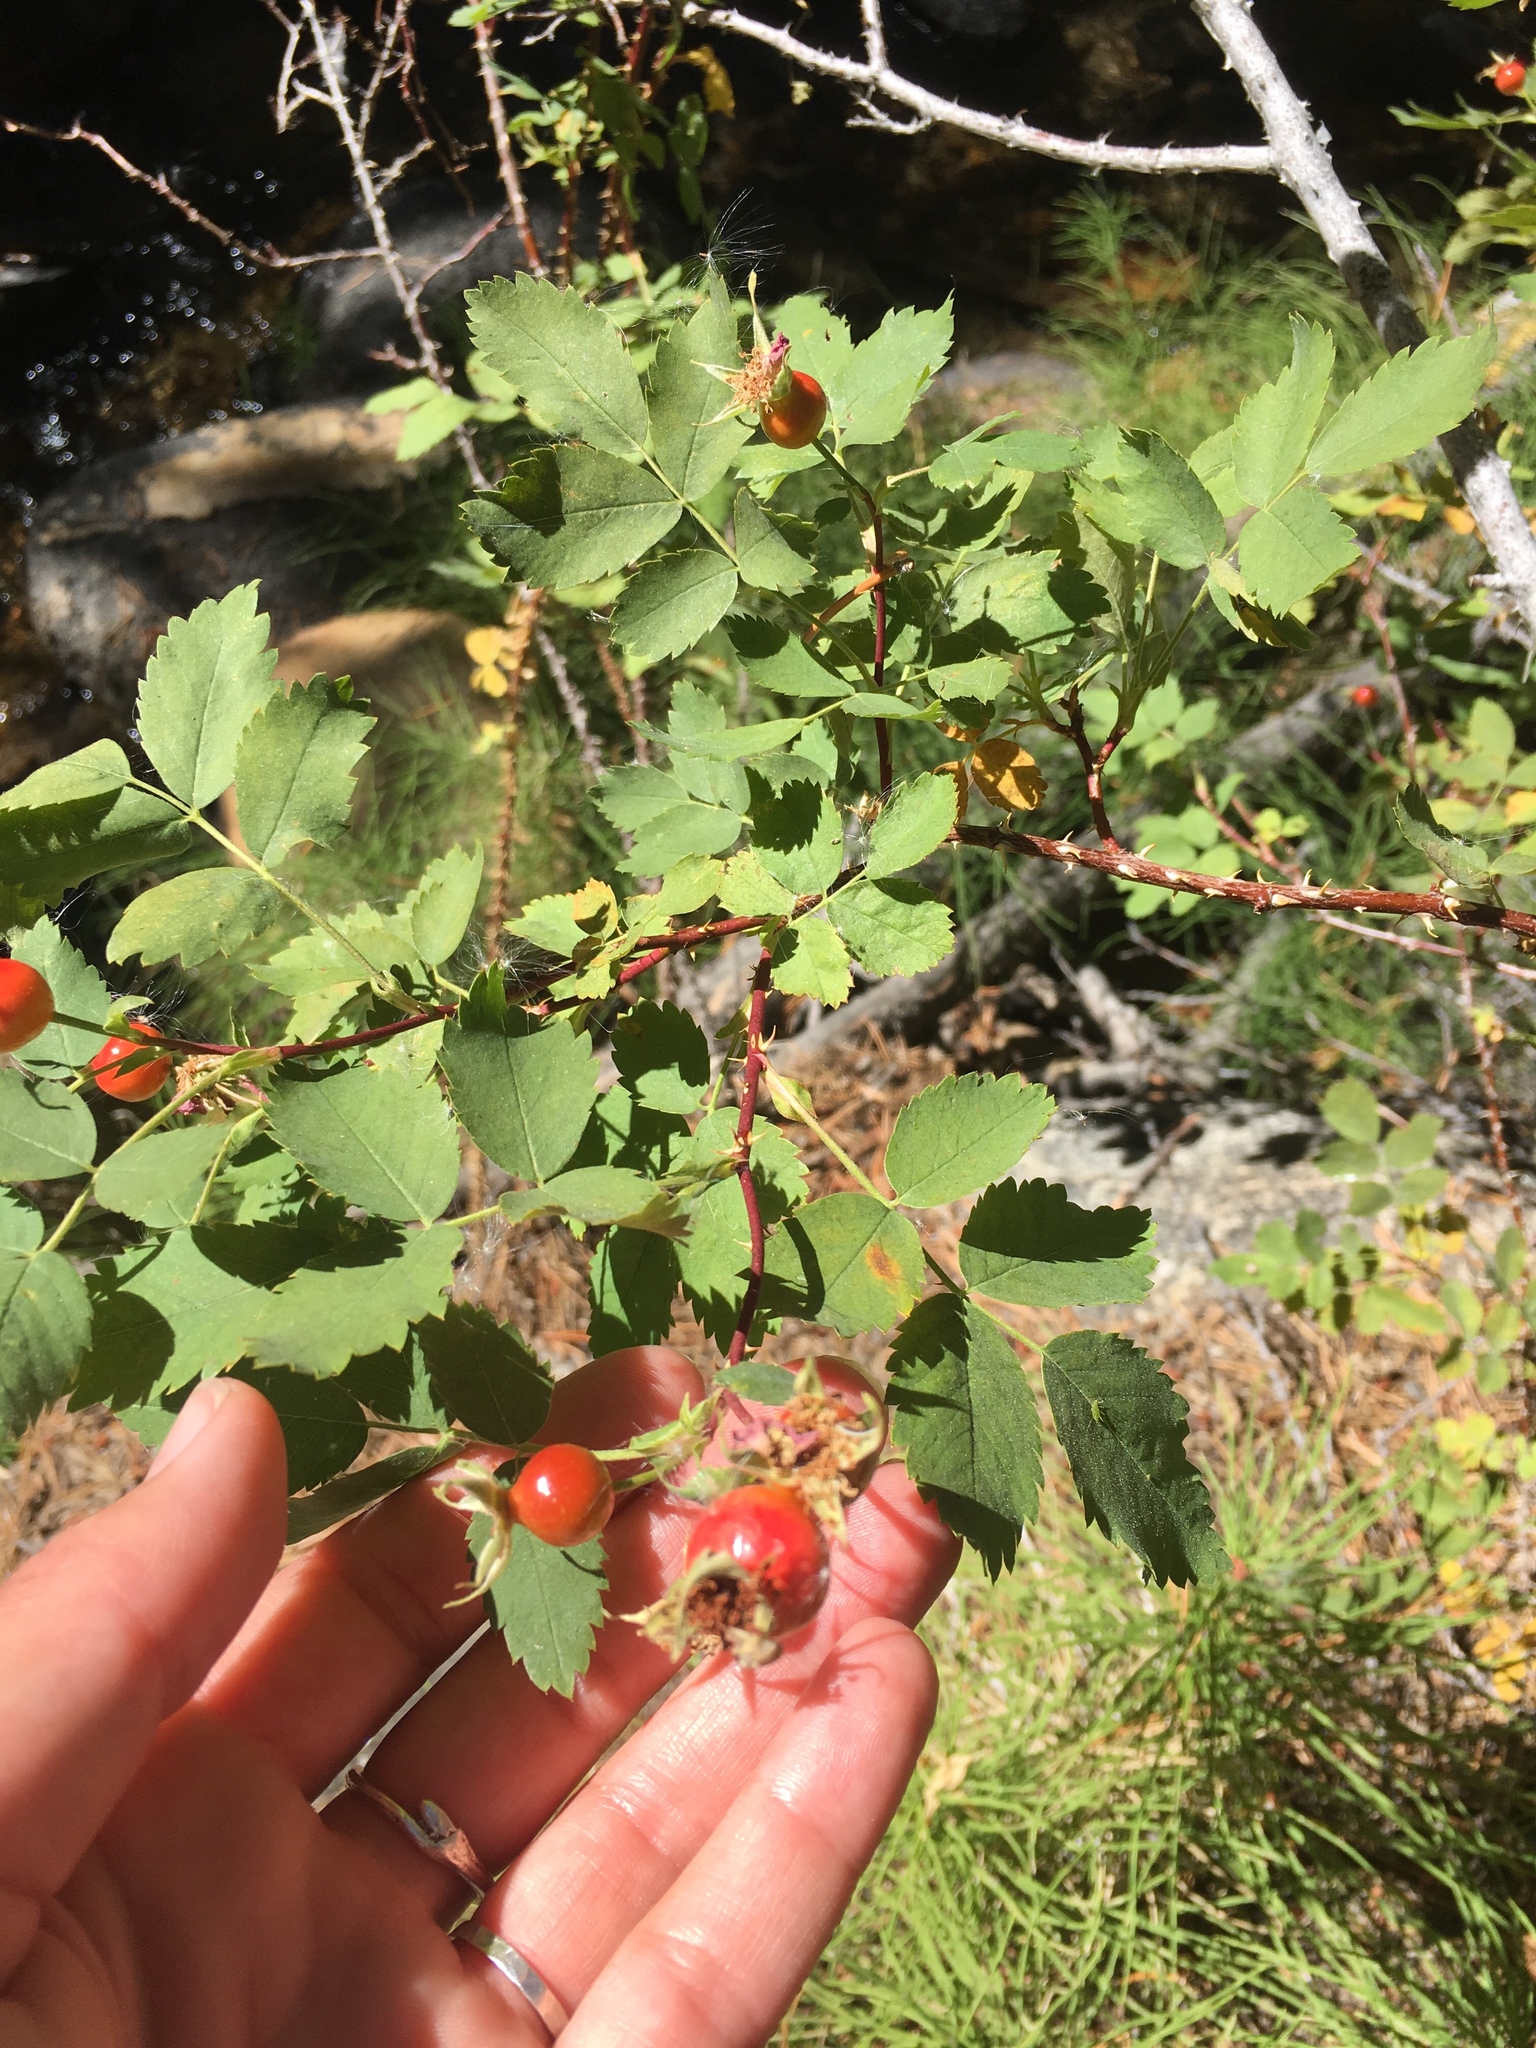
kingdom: Plantae
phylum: Tracheophyta
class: Magnoliopsida
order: Rosales
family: Rosaceae
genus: Rosa
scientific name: Rosa woodsii
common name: Woods's rose
